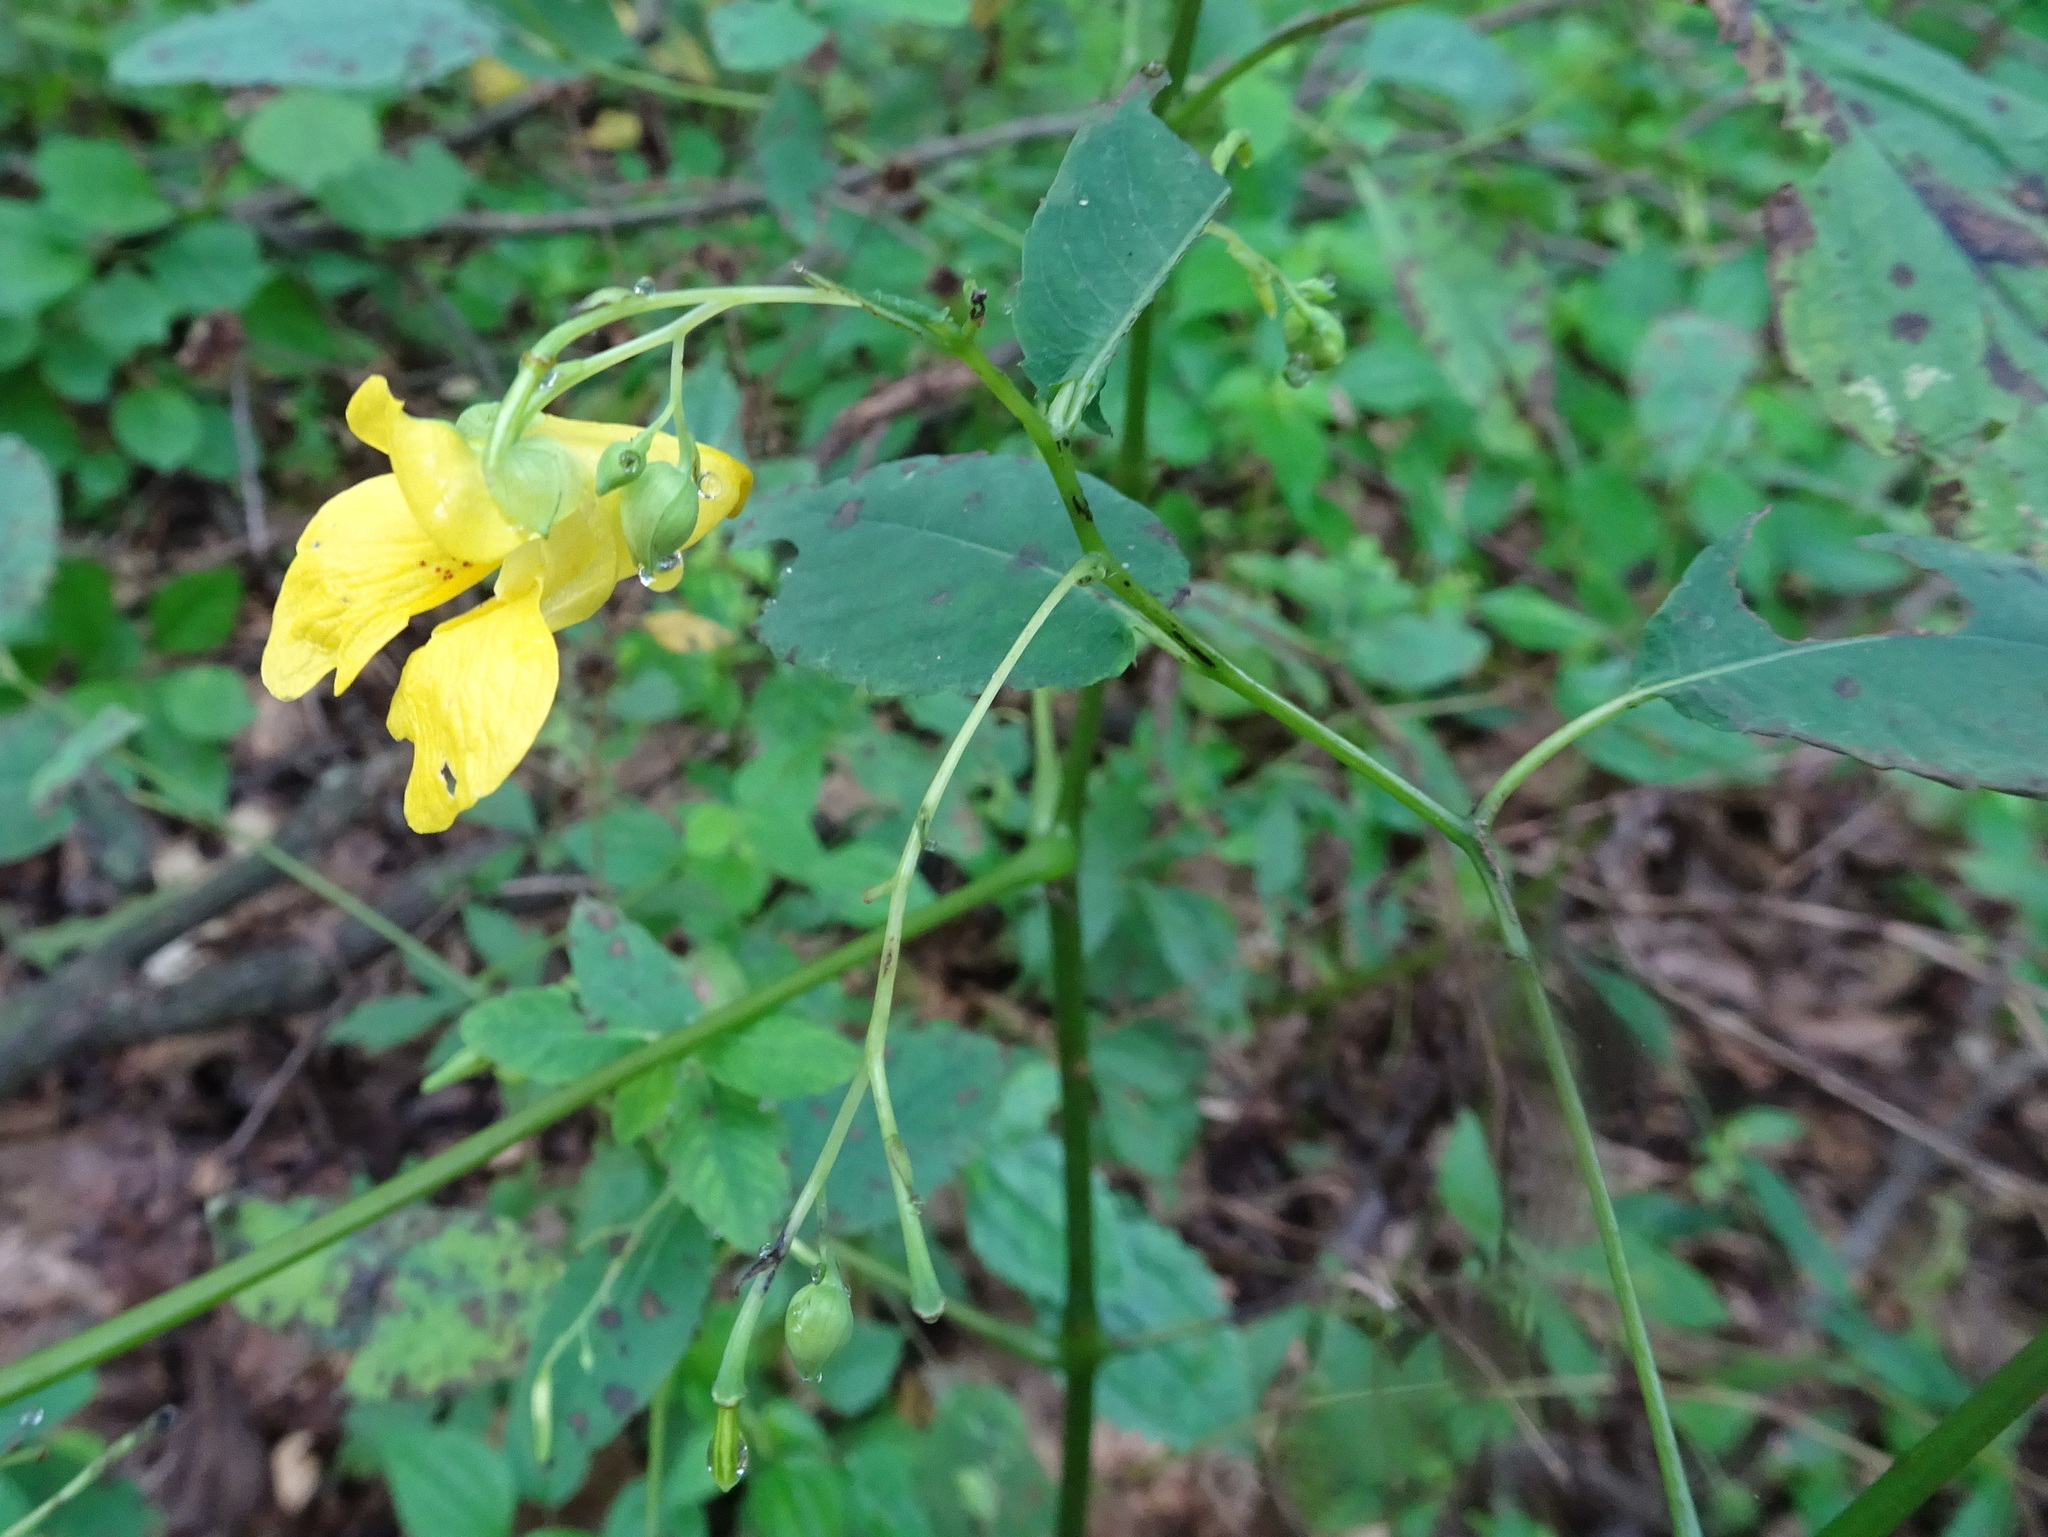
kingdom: Plantae
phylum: Tracheophyta
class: Magnoliopsida
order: Ericales
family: Balsaminaceae
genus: Impatiens
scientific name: Impatiens pallida
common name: Pale snapweed
